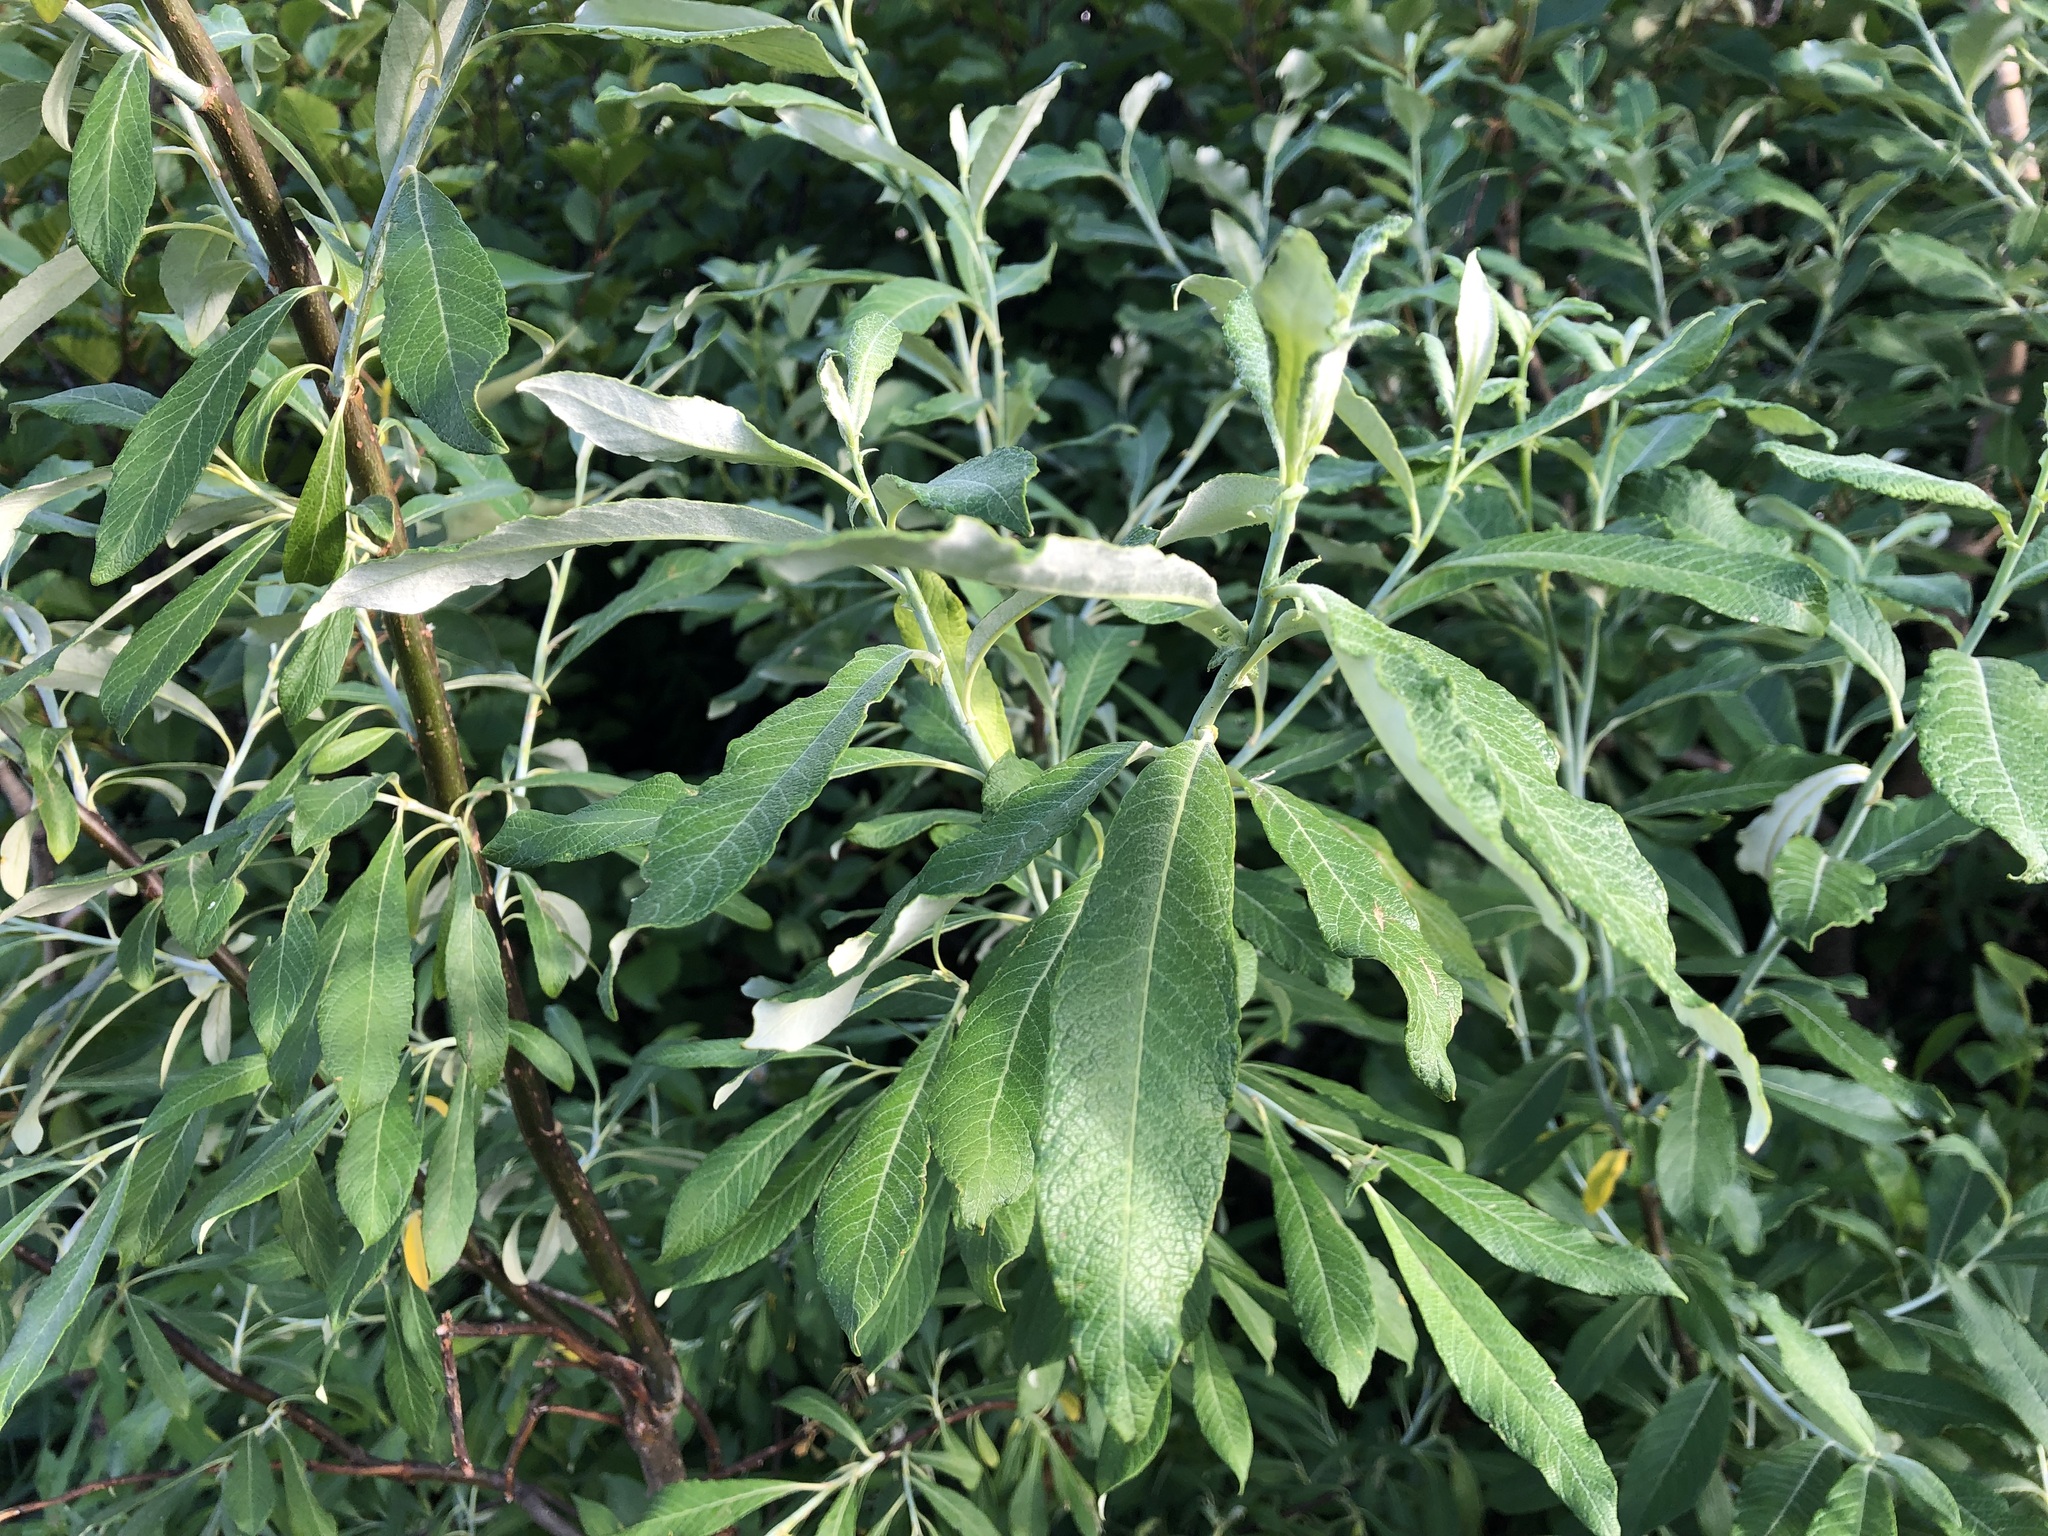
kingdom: Plantae
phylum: Tracheophyta
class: Magnoliopsida
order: Malpighiales
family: Salicaceae
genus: Salix
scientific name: Salix alaxensis
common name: Feltleaf willow
